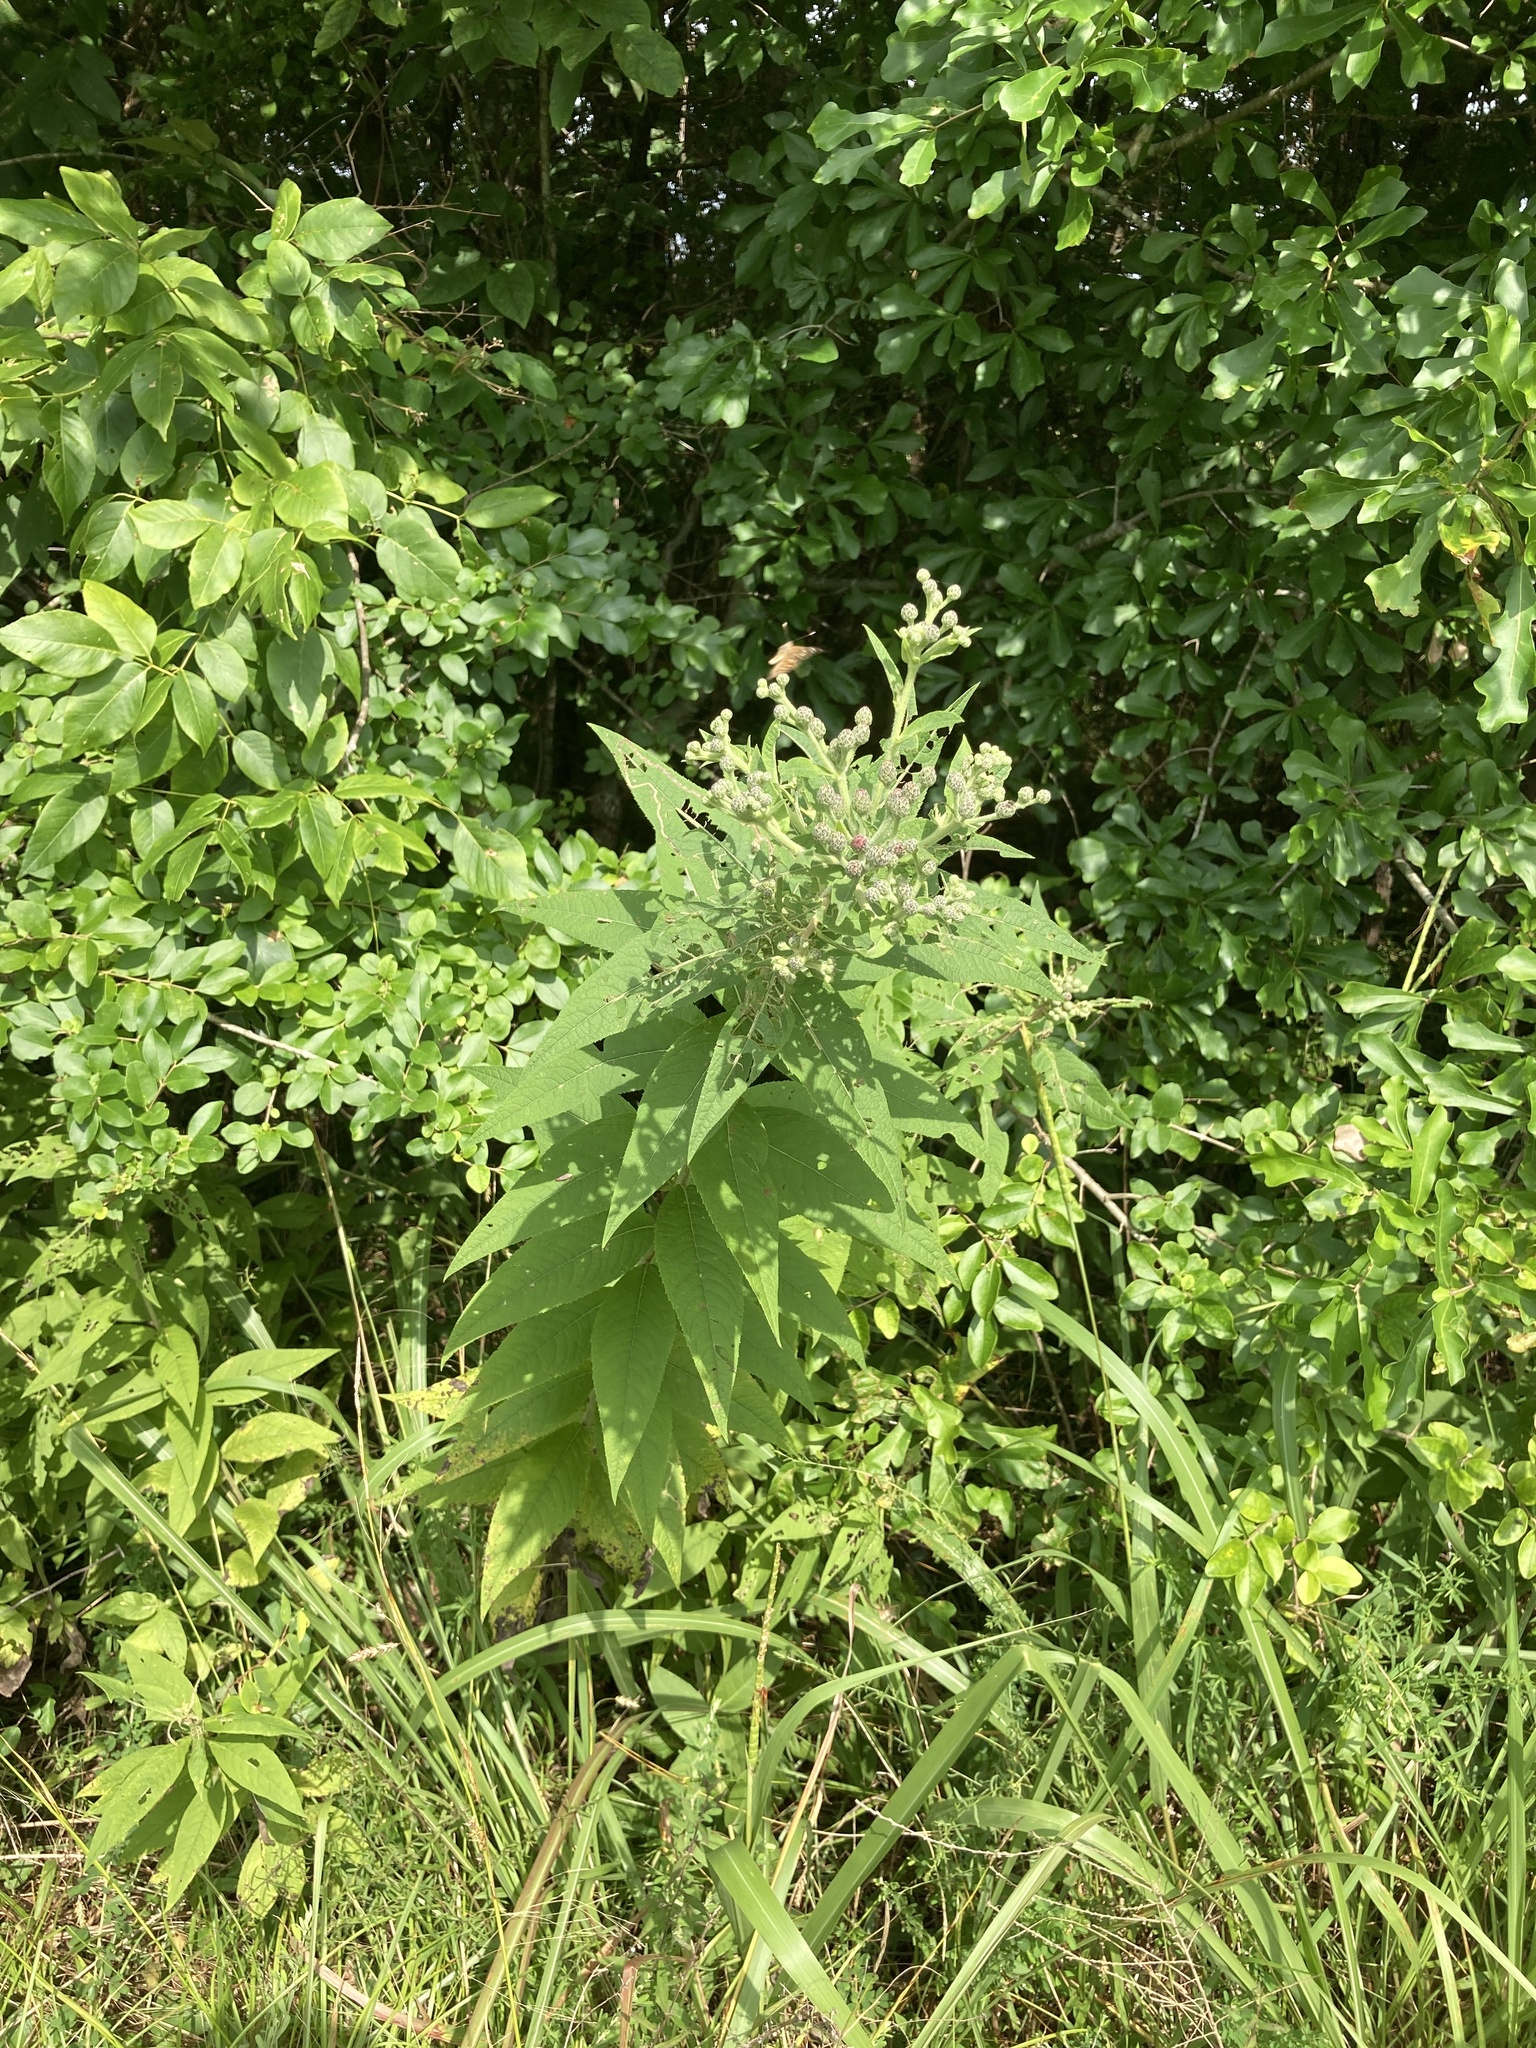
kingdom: Plantae
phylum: Tracheophyta
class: Magnoliopsida
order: Asterales
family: Asteraceae
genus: Vernonia
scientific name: Vernonia missurica
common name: Missouri ironweed
